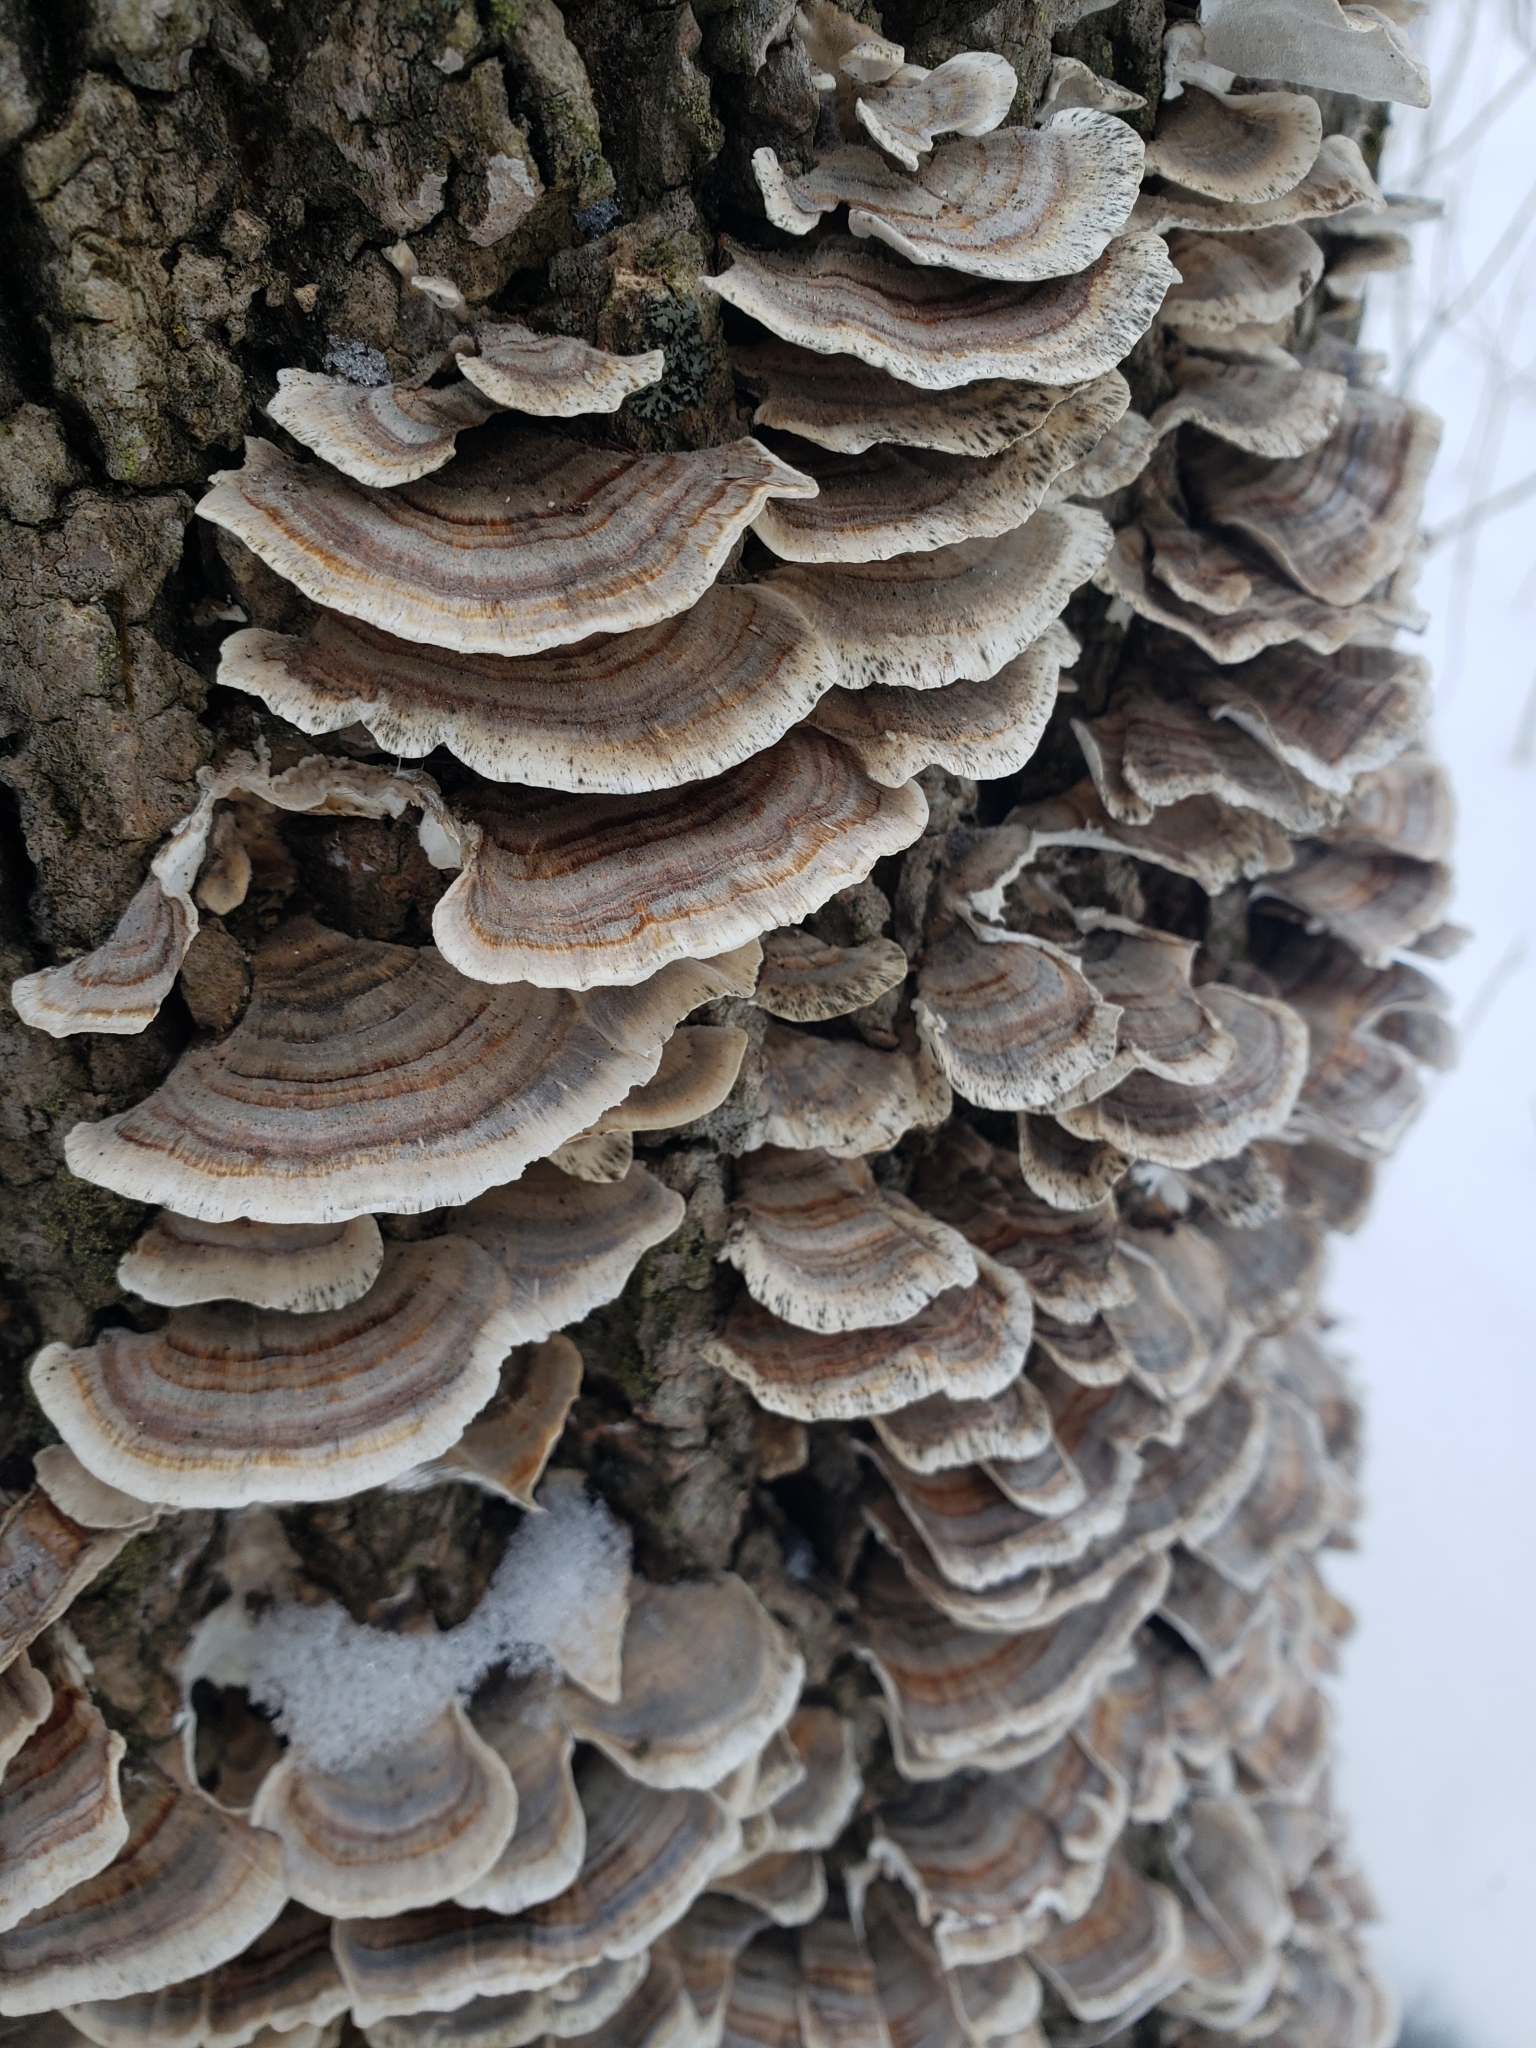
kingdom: Fungi
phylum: Basidiomycota
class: Agaricomycetes
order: Polyporales
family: Polyporaceae
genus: Trametes
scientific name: Trametes versicolor
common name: Turkeytail
